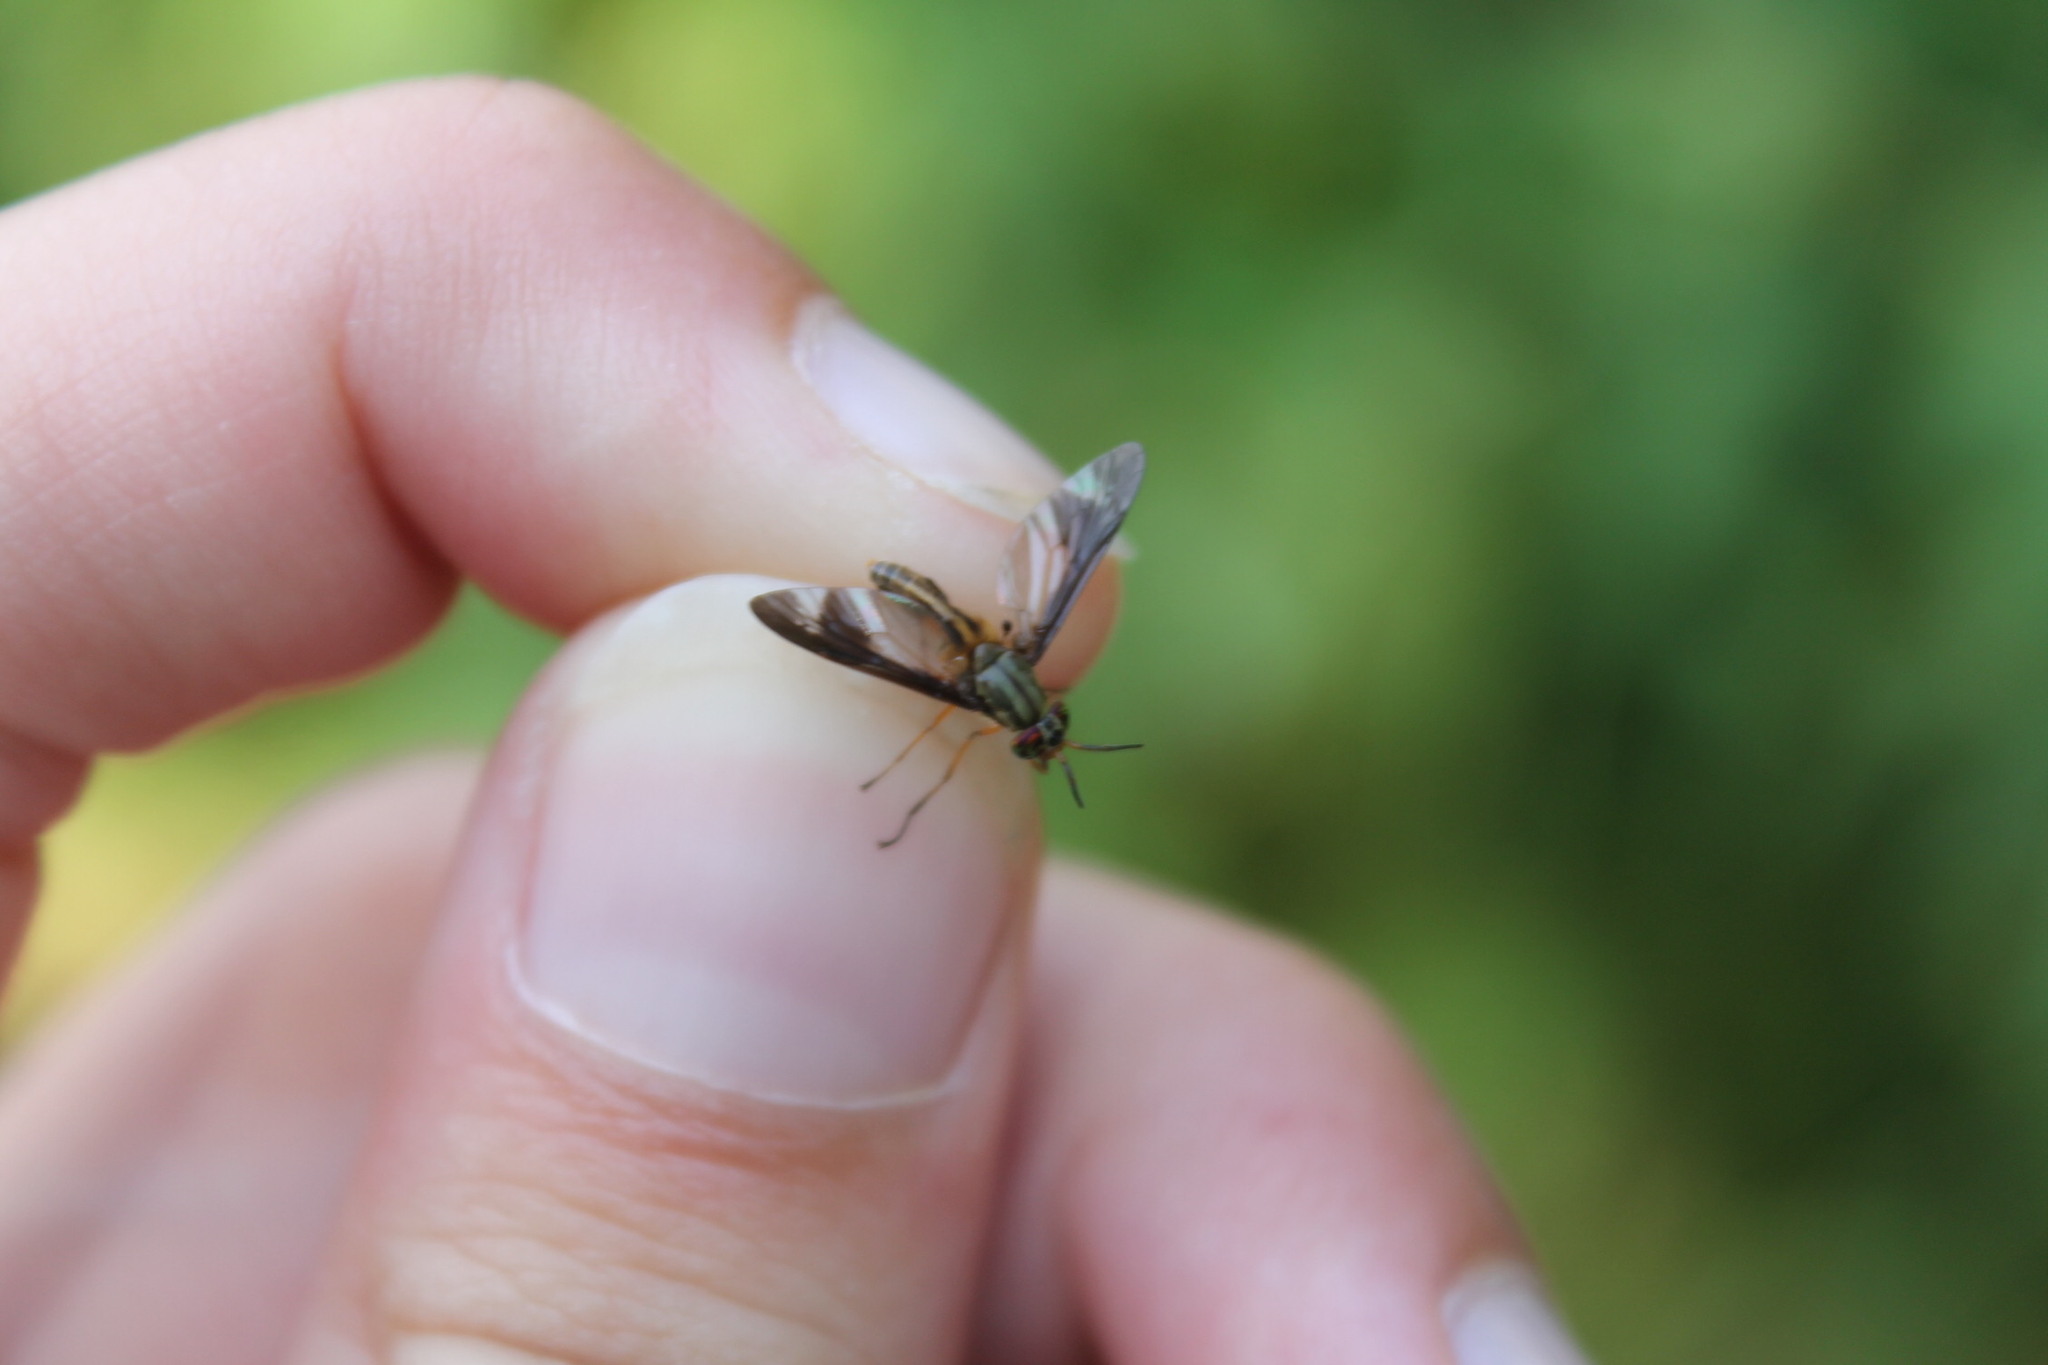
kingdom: Animalia
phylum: Arthropoda
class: Insecta
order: Diptera
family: Tabanidae
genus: Chrysops
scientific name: Chrysops vittatus
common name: Striped deer fly
